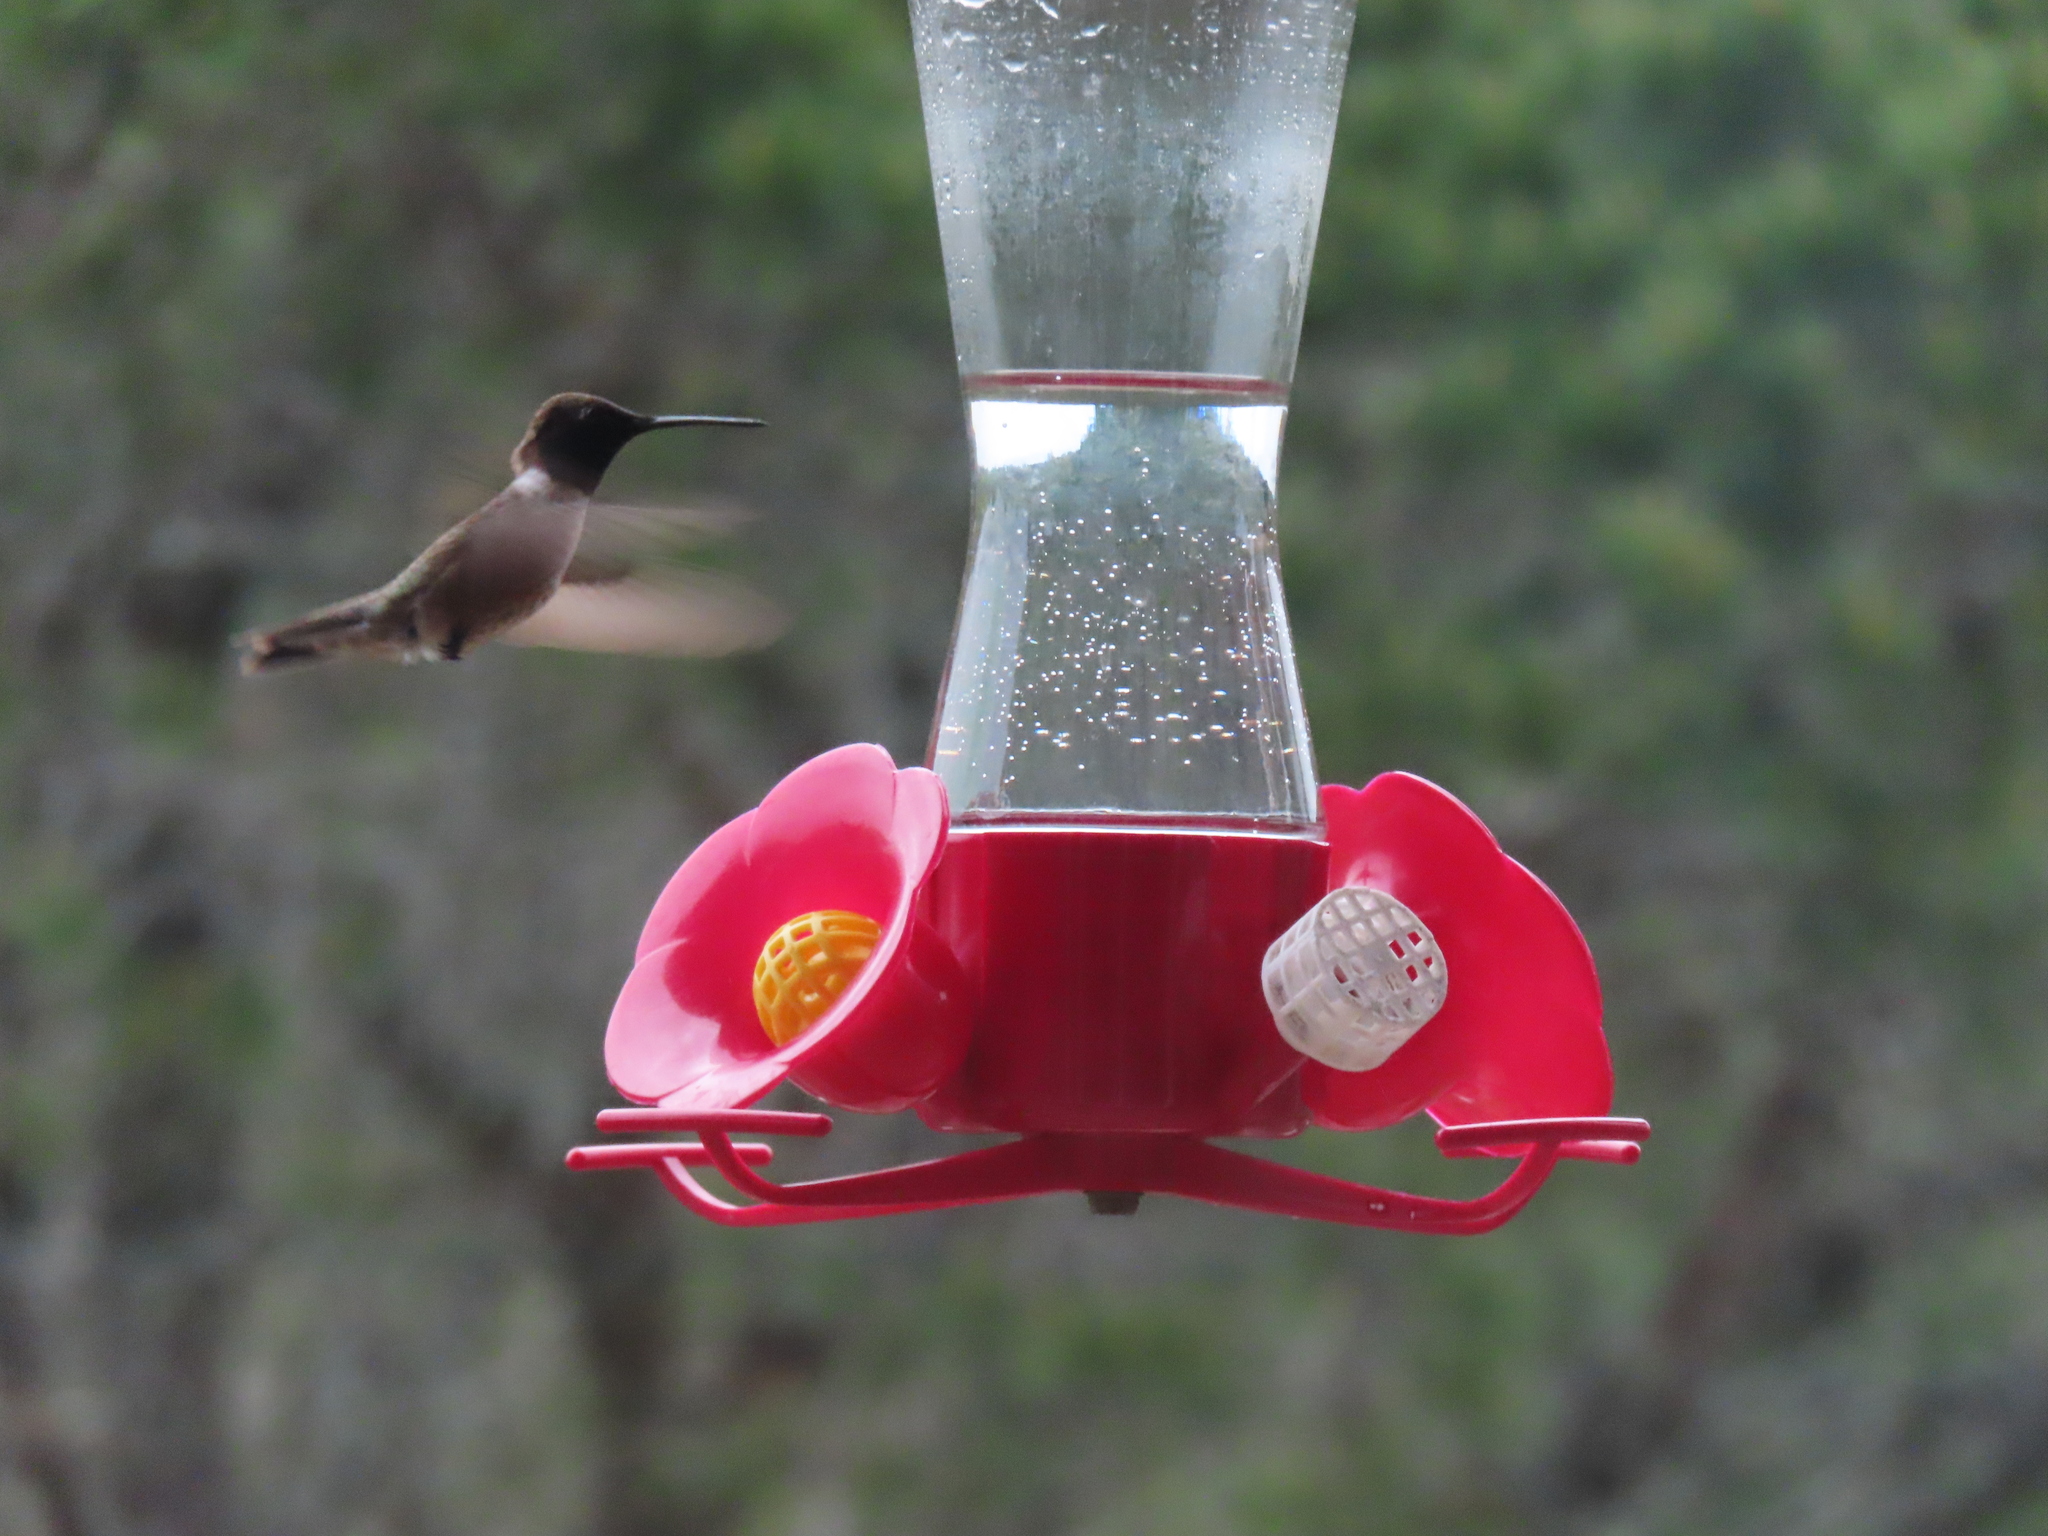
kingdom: Animalia
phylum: Chordata
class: Aves
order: Apodiformes
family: Trochilidae
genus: Archilochus
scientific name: Archilochus alexandri
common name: Black-chinned hummingbird
